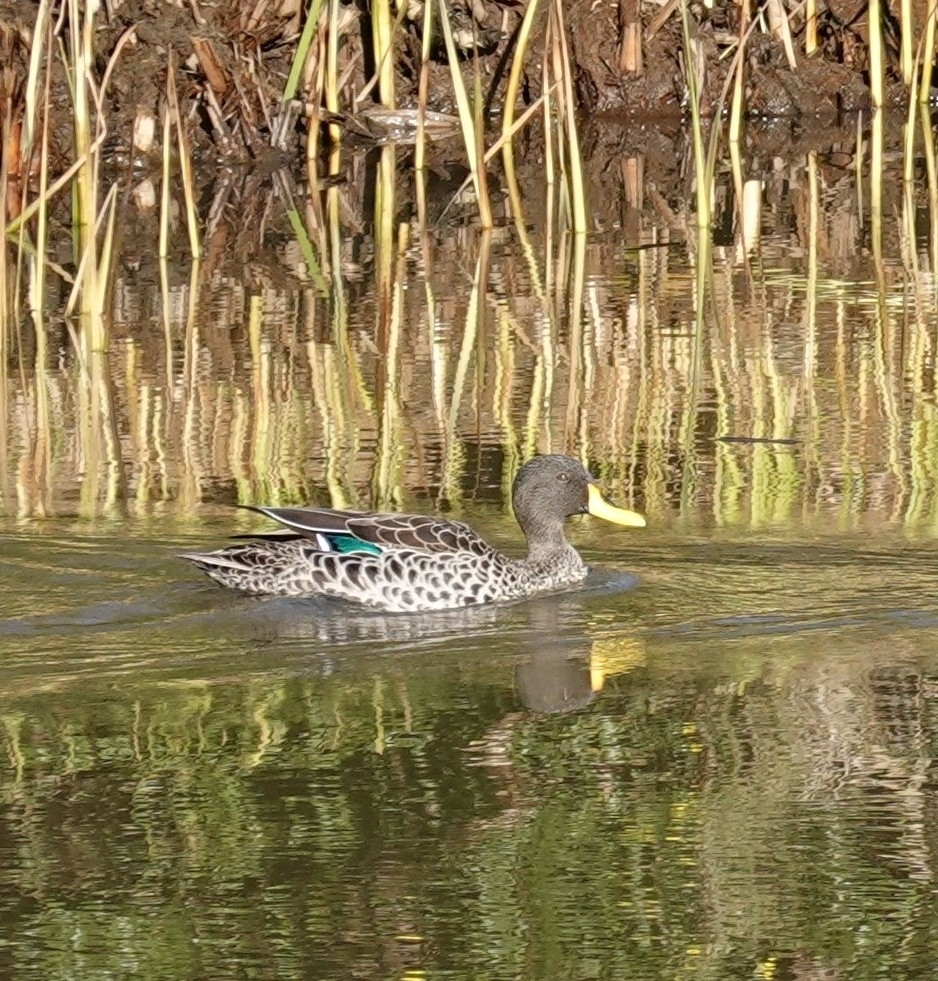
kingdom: Animalia
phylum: Chordata
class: Aves
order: Anseriformes
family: Anatidae
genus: Anas
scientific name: Anas undulata
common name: Yellow-billed duck
